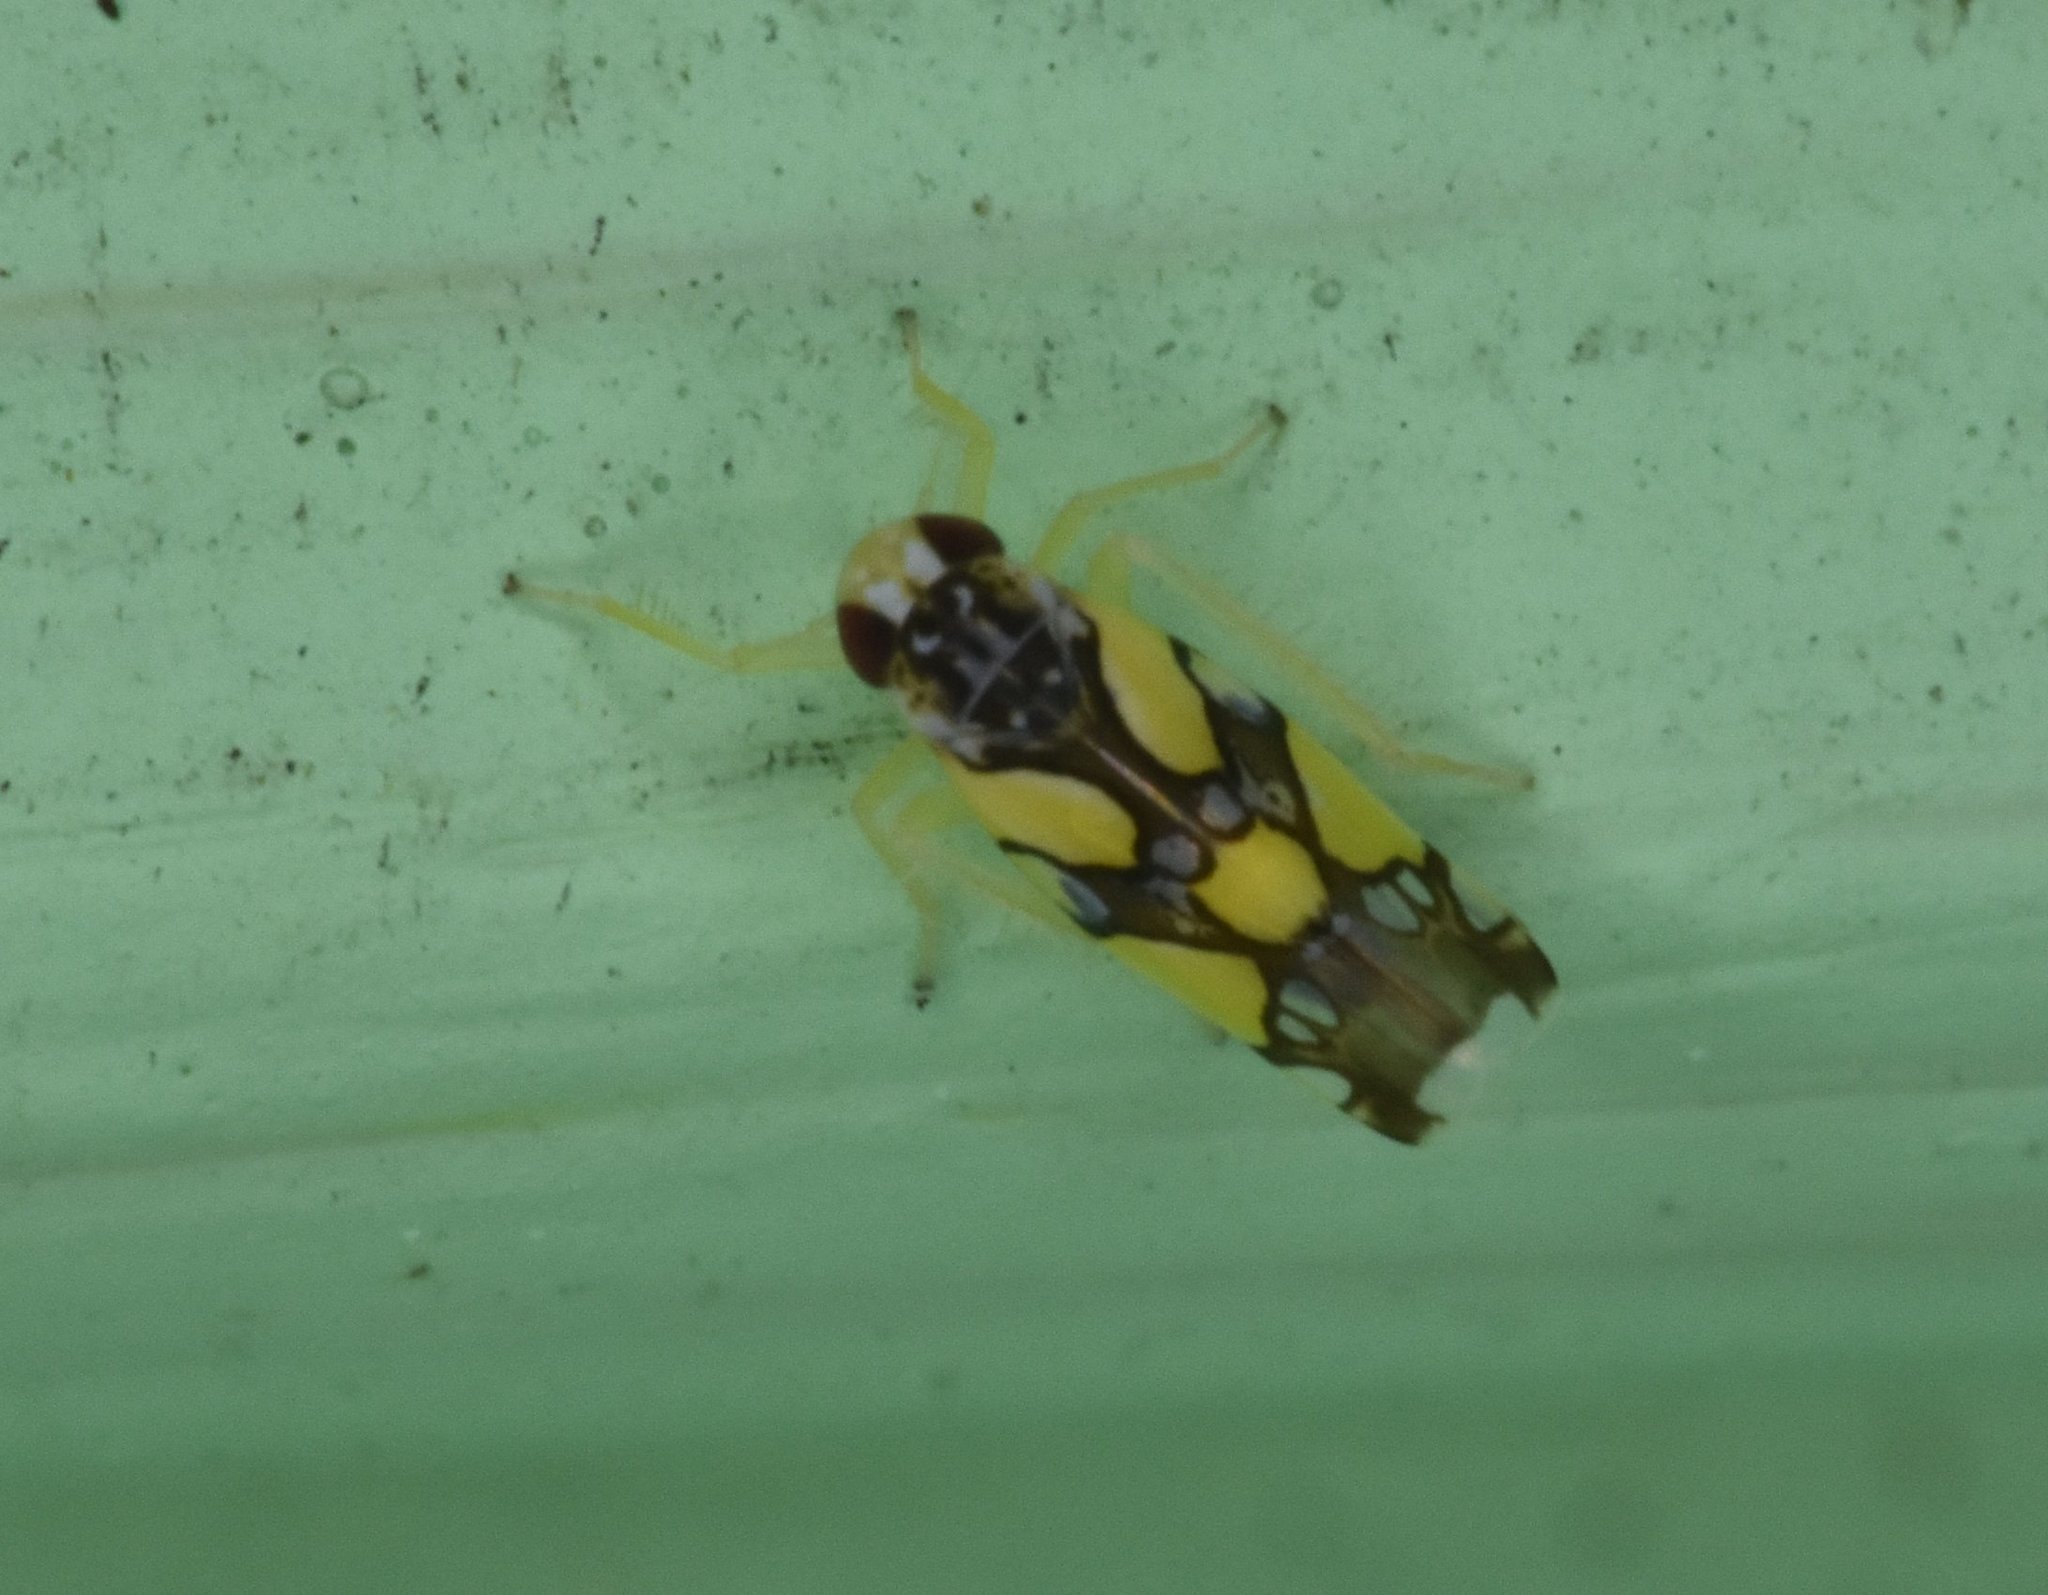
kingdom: Animalia
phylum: Arthropoda
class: Insecta
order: Hemiptera
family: Cicadellidae
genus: Protalebrella
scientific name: Protalebrella brasiliensis
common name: Brasilian leafhopper
